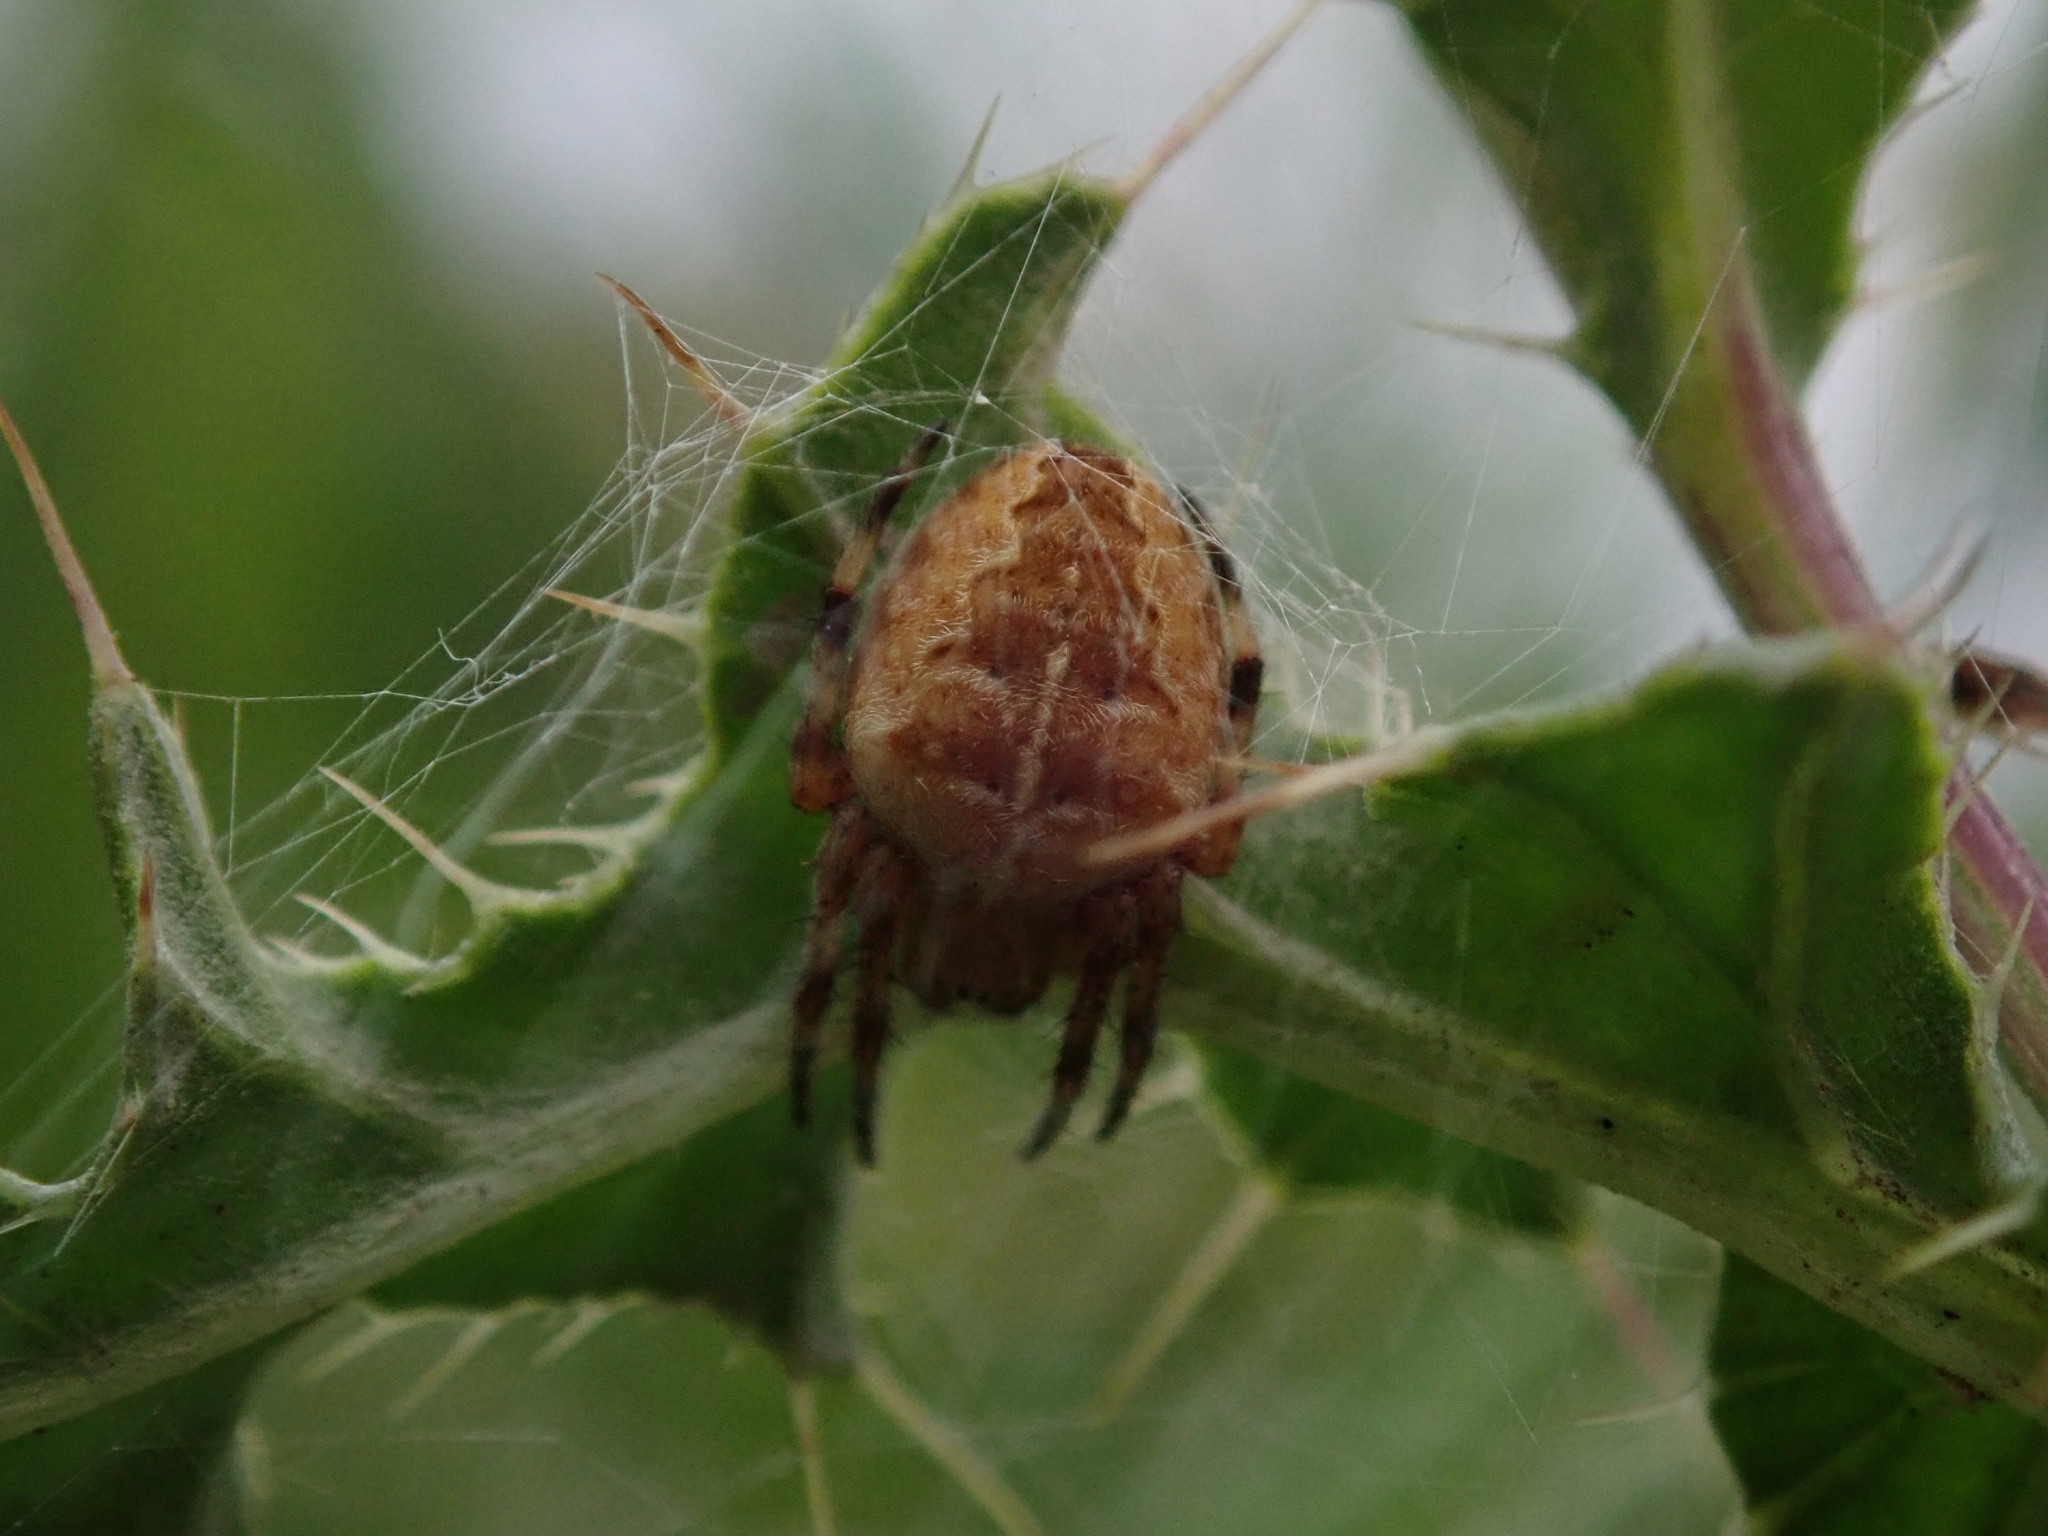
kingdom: Animalia
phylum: Arthropoda
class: Arachnida
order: Araneae
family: Araneidae
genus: Araneus
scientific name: Araneus diadematus
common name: Cross orbweaver
